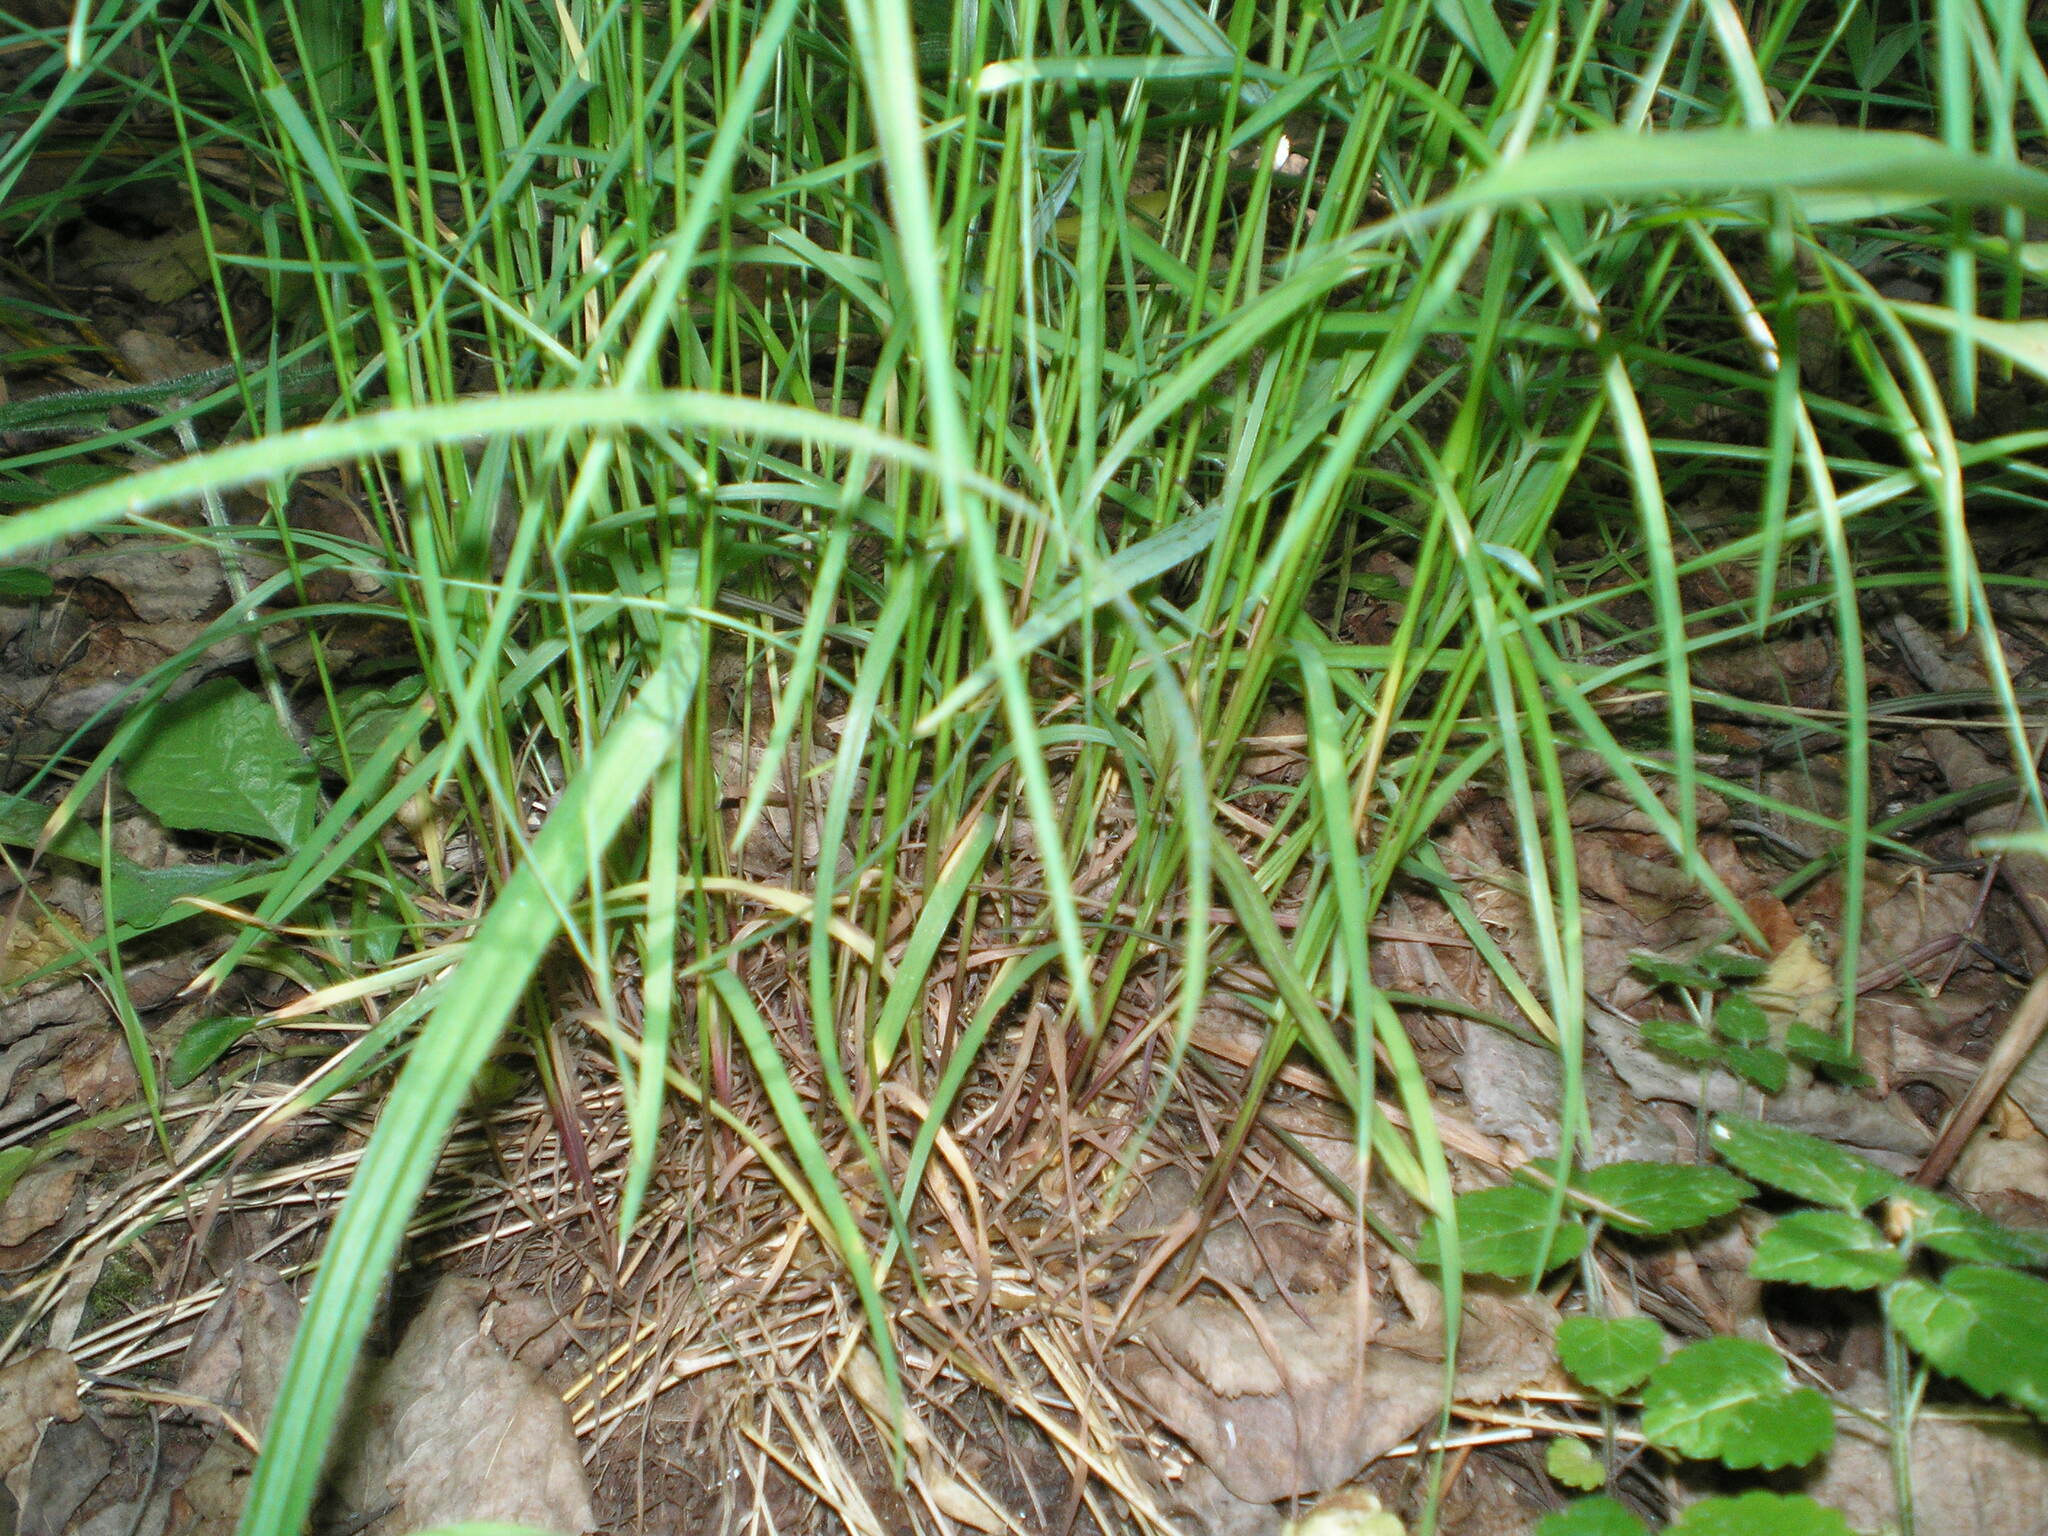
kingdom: Plantae
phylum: Tracheophyta
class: Liliopsida
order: Poales
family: Poaceae
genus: Poa
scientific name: Poa nemoralis
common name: Wood bluegrass
